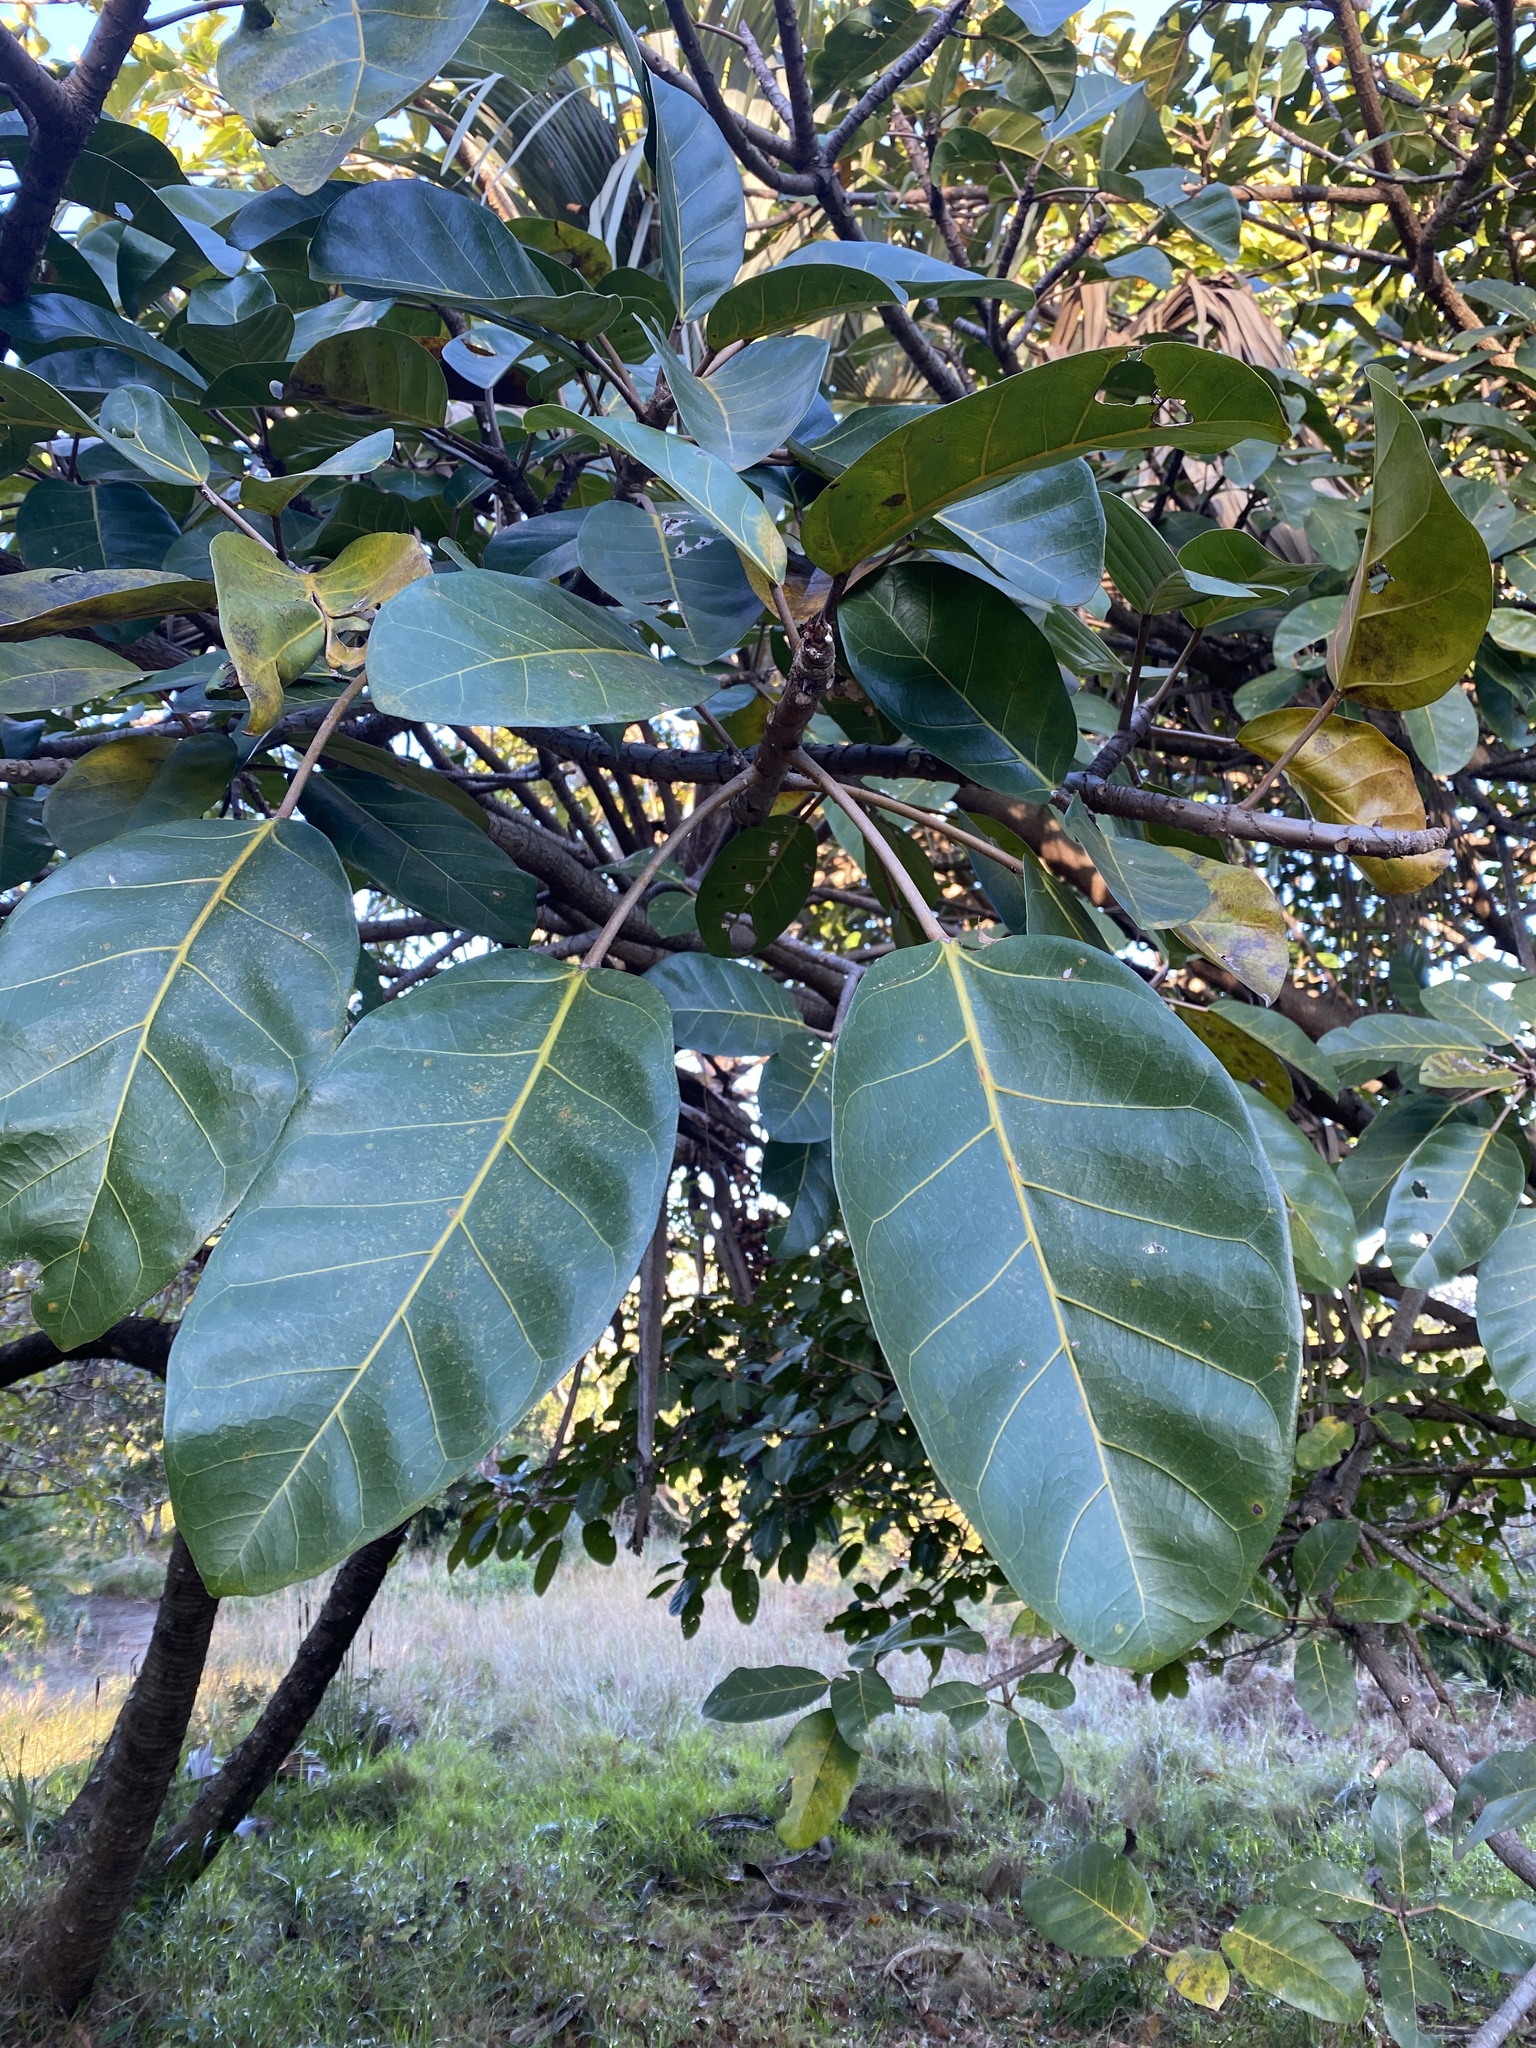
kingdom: Plantae
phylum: Tracheophyta
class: Magnoliopsida
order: Rosales
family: Moraceae
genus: Ficus
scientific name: Ficus lutea
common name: Giant-leaved fig
